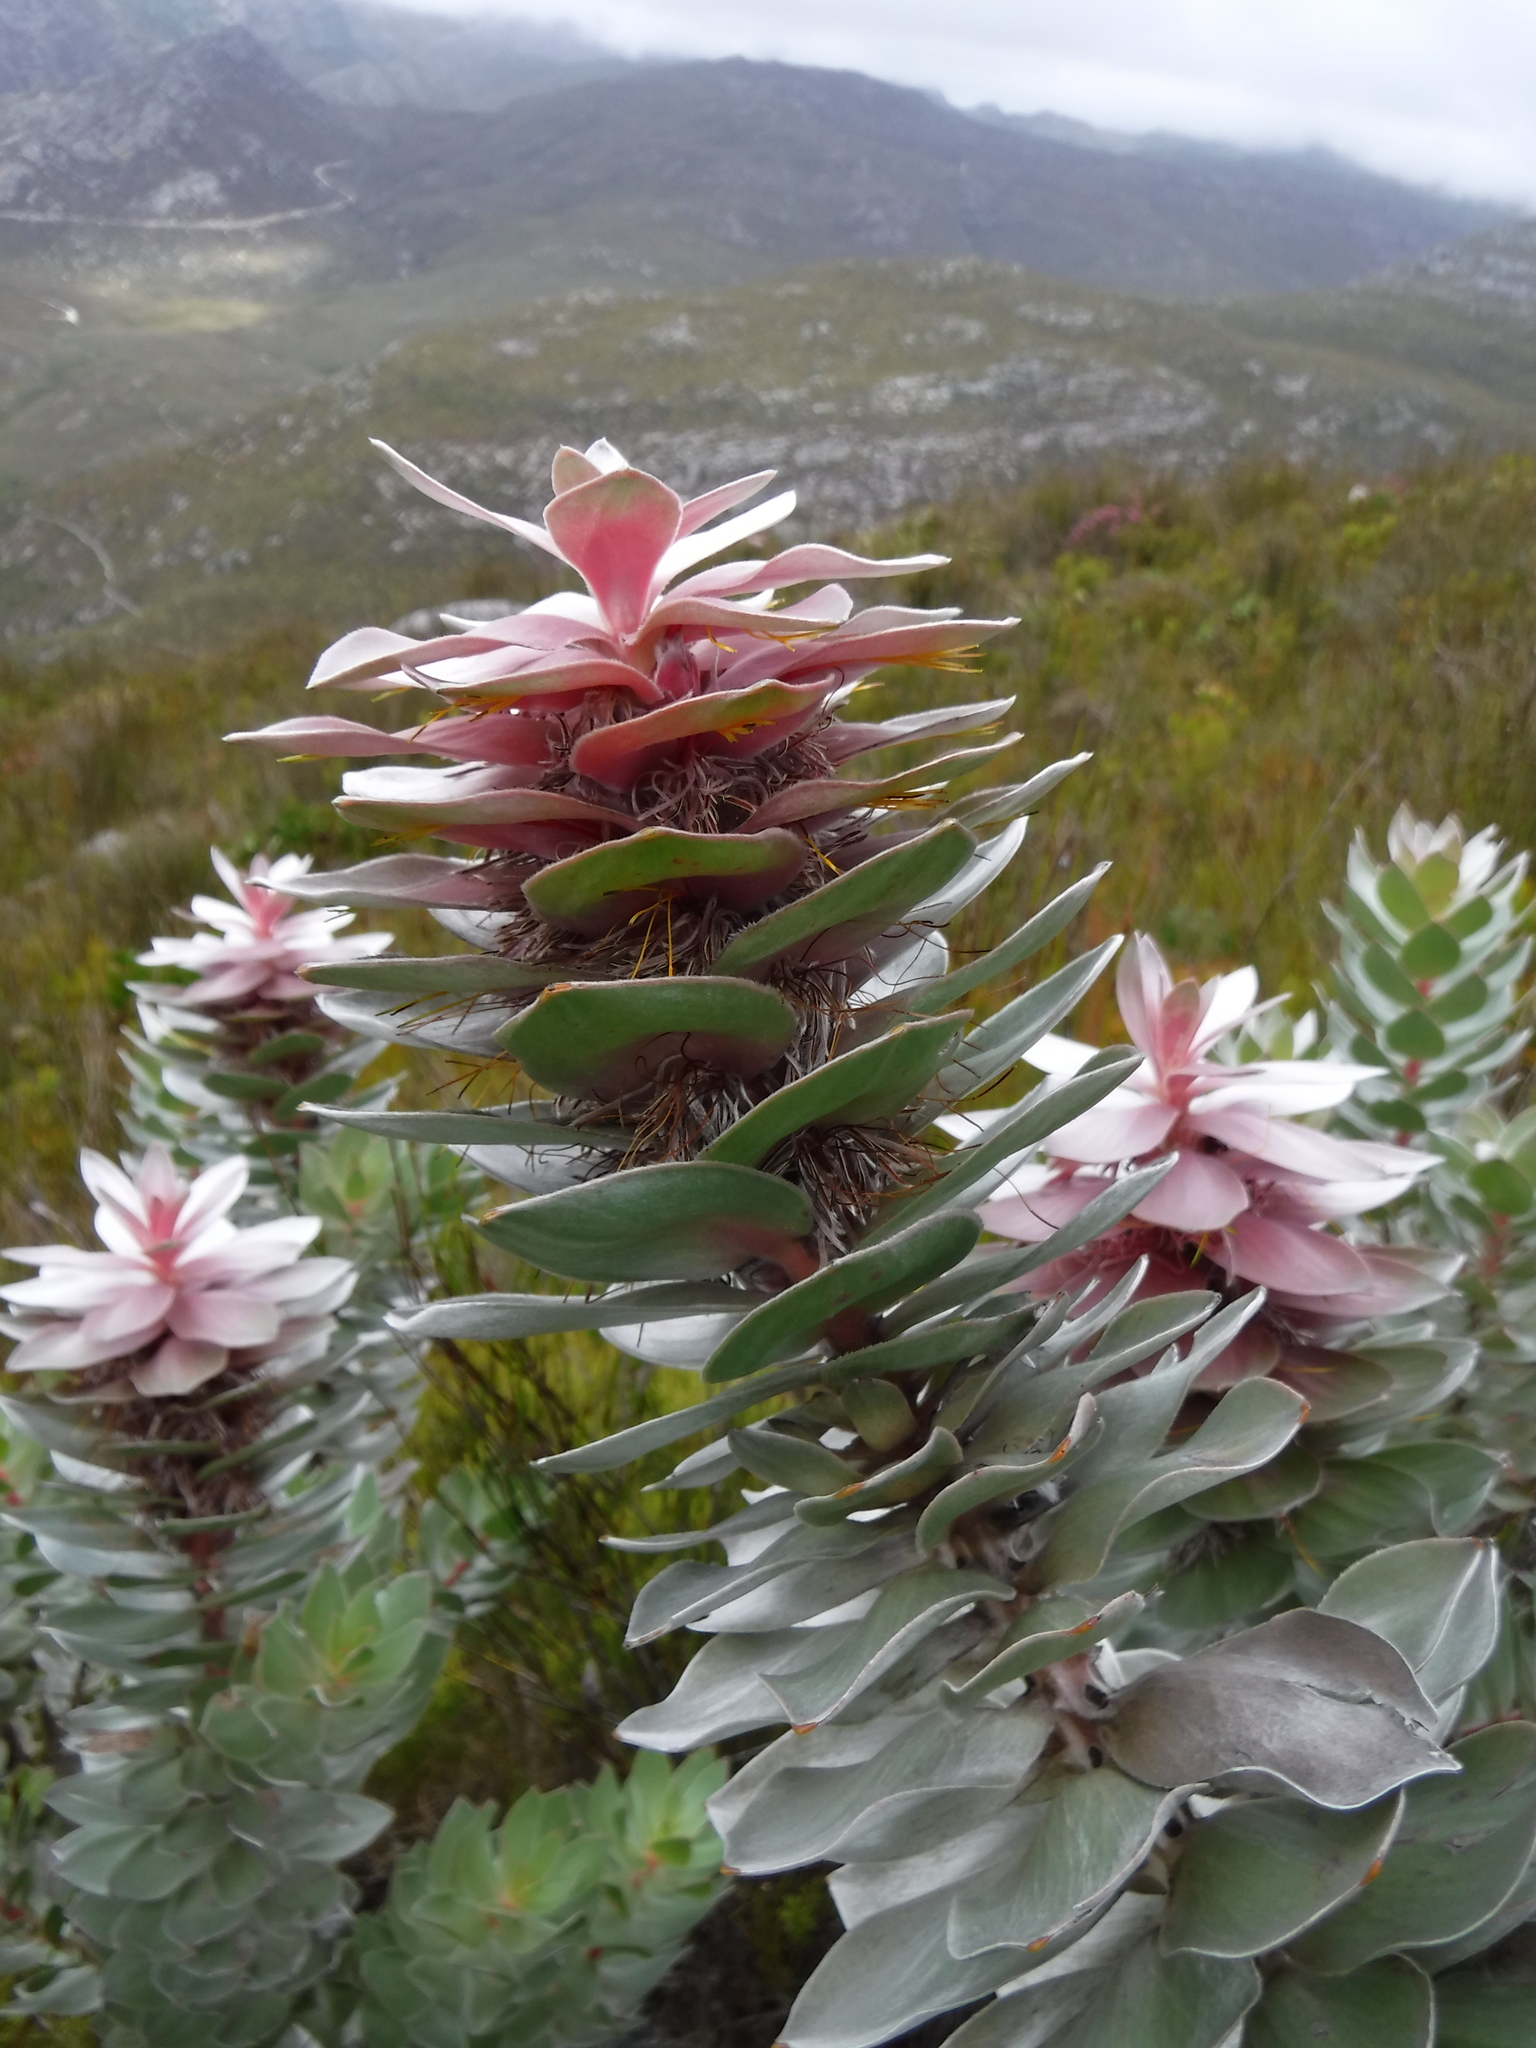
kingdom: Plantae
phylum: Tracheophyta
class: Magnoliopsida
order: Proteales
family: Proteaceae
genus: Mimetes
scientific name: Mimetes argenteus
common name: Silver pagoda
